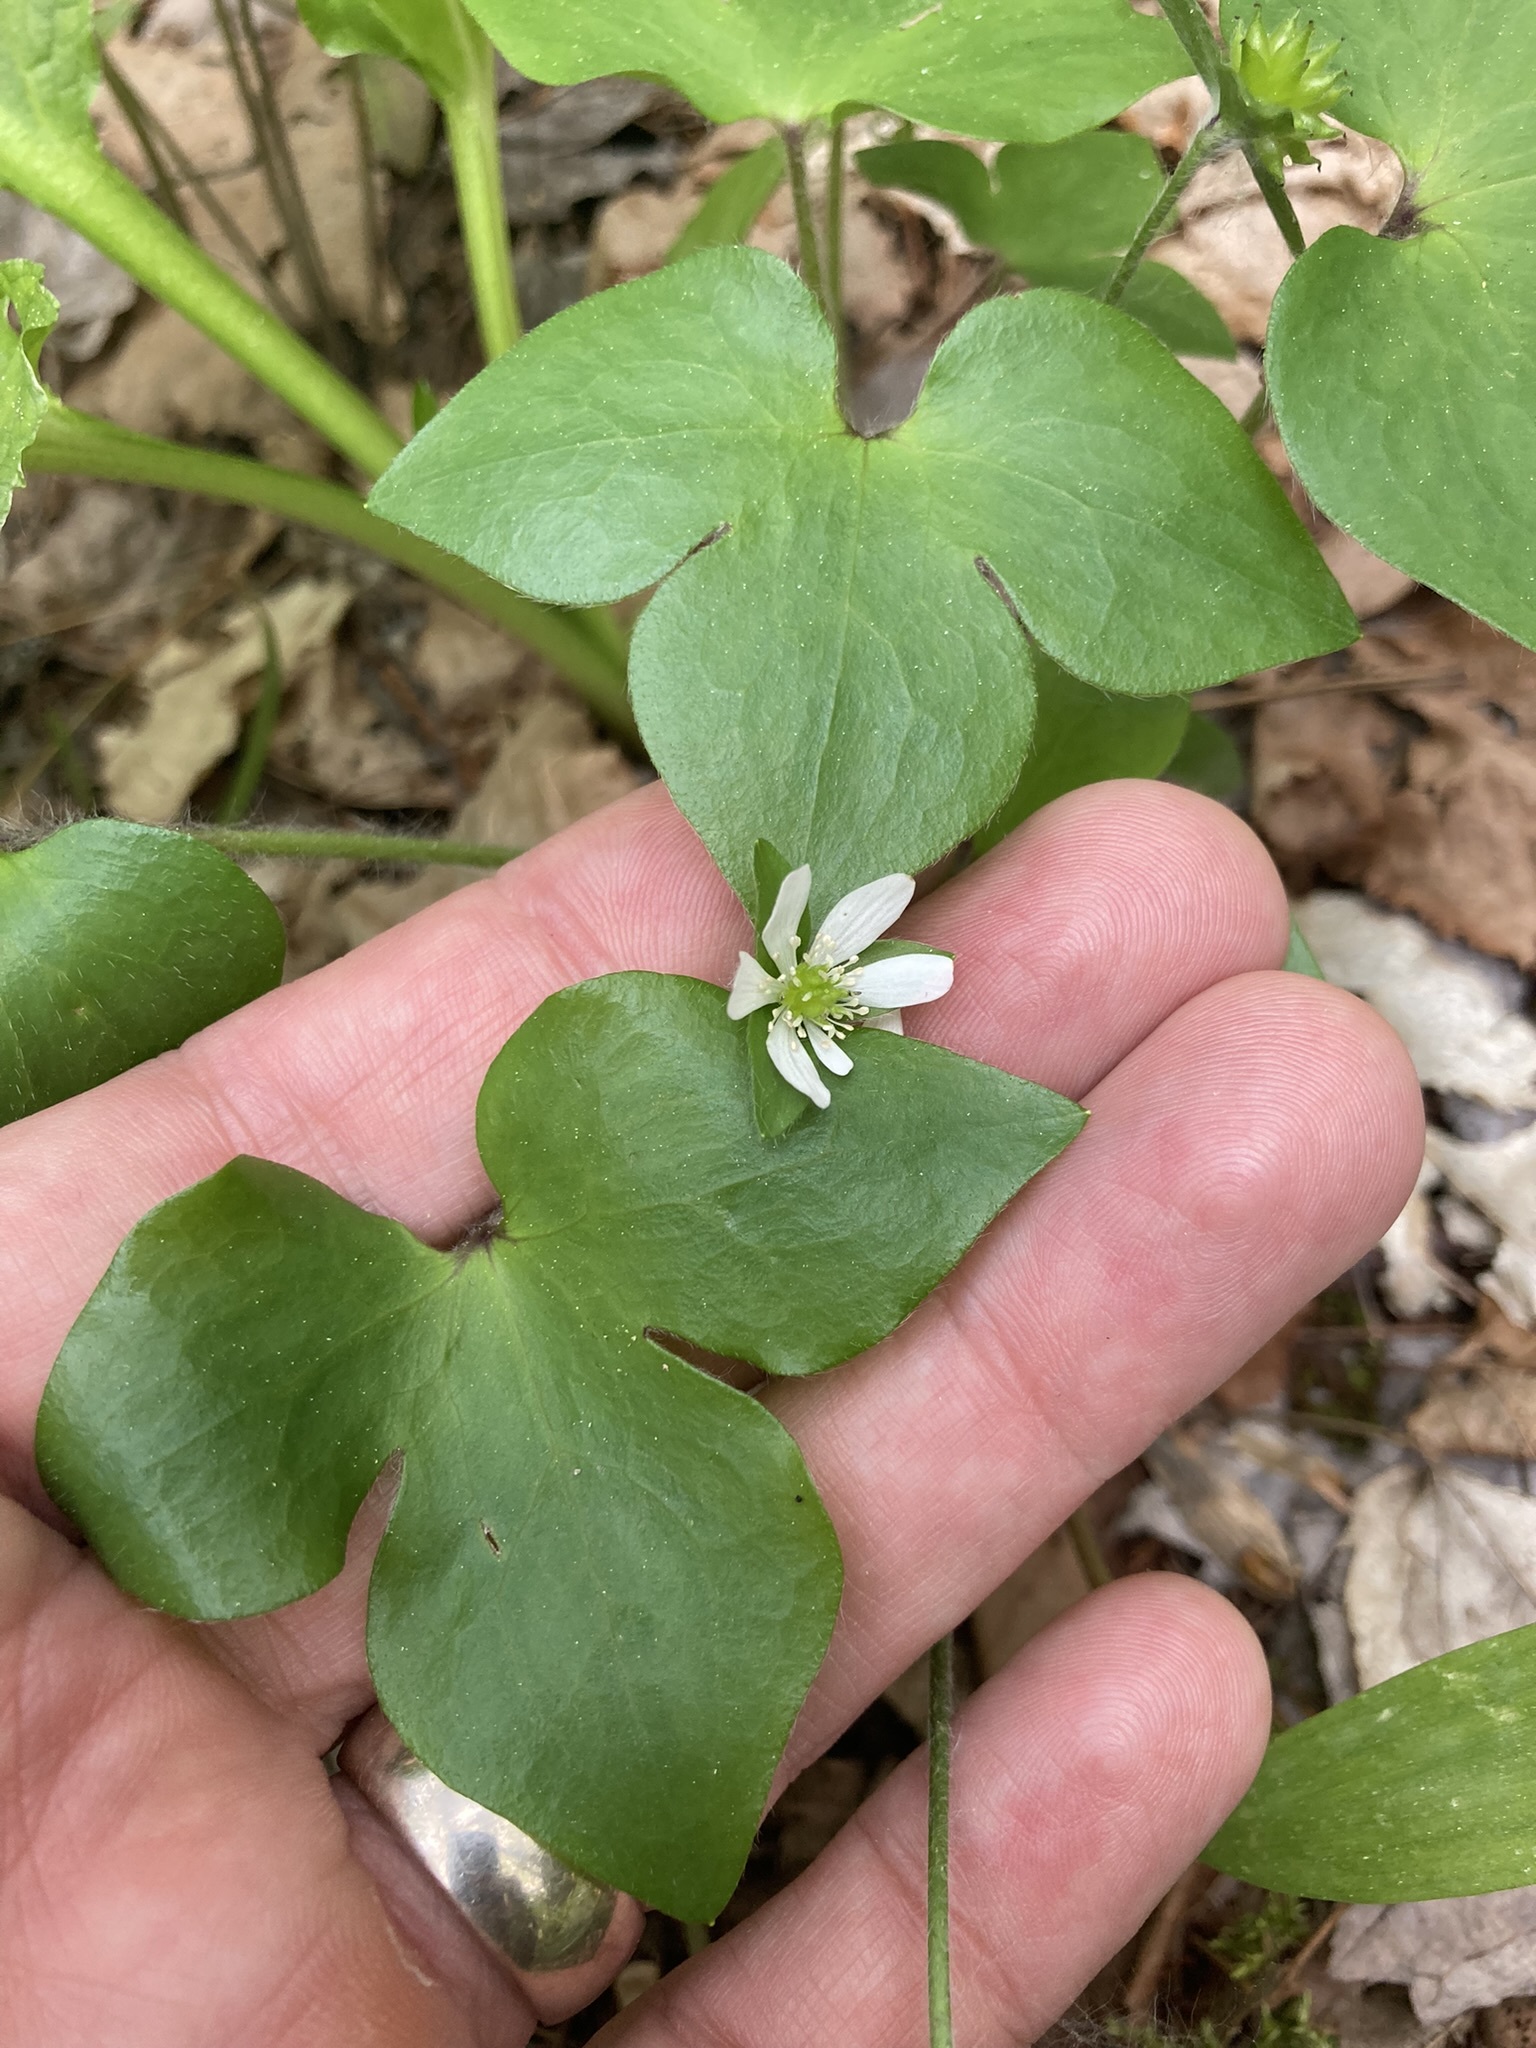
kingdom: Plantae
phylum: Tracheophyta
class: Magnoliopsida
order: Ranunculales
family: Ranunculaceae
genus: Hepatica
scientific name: Hepatica acutiloba
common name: Sharp-lobed hepatica
